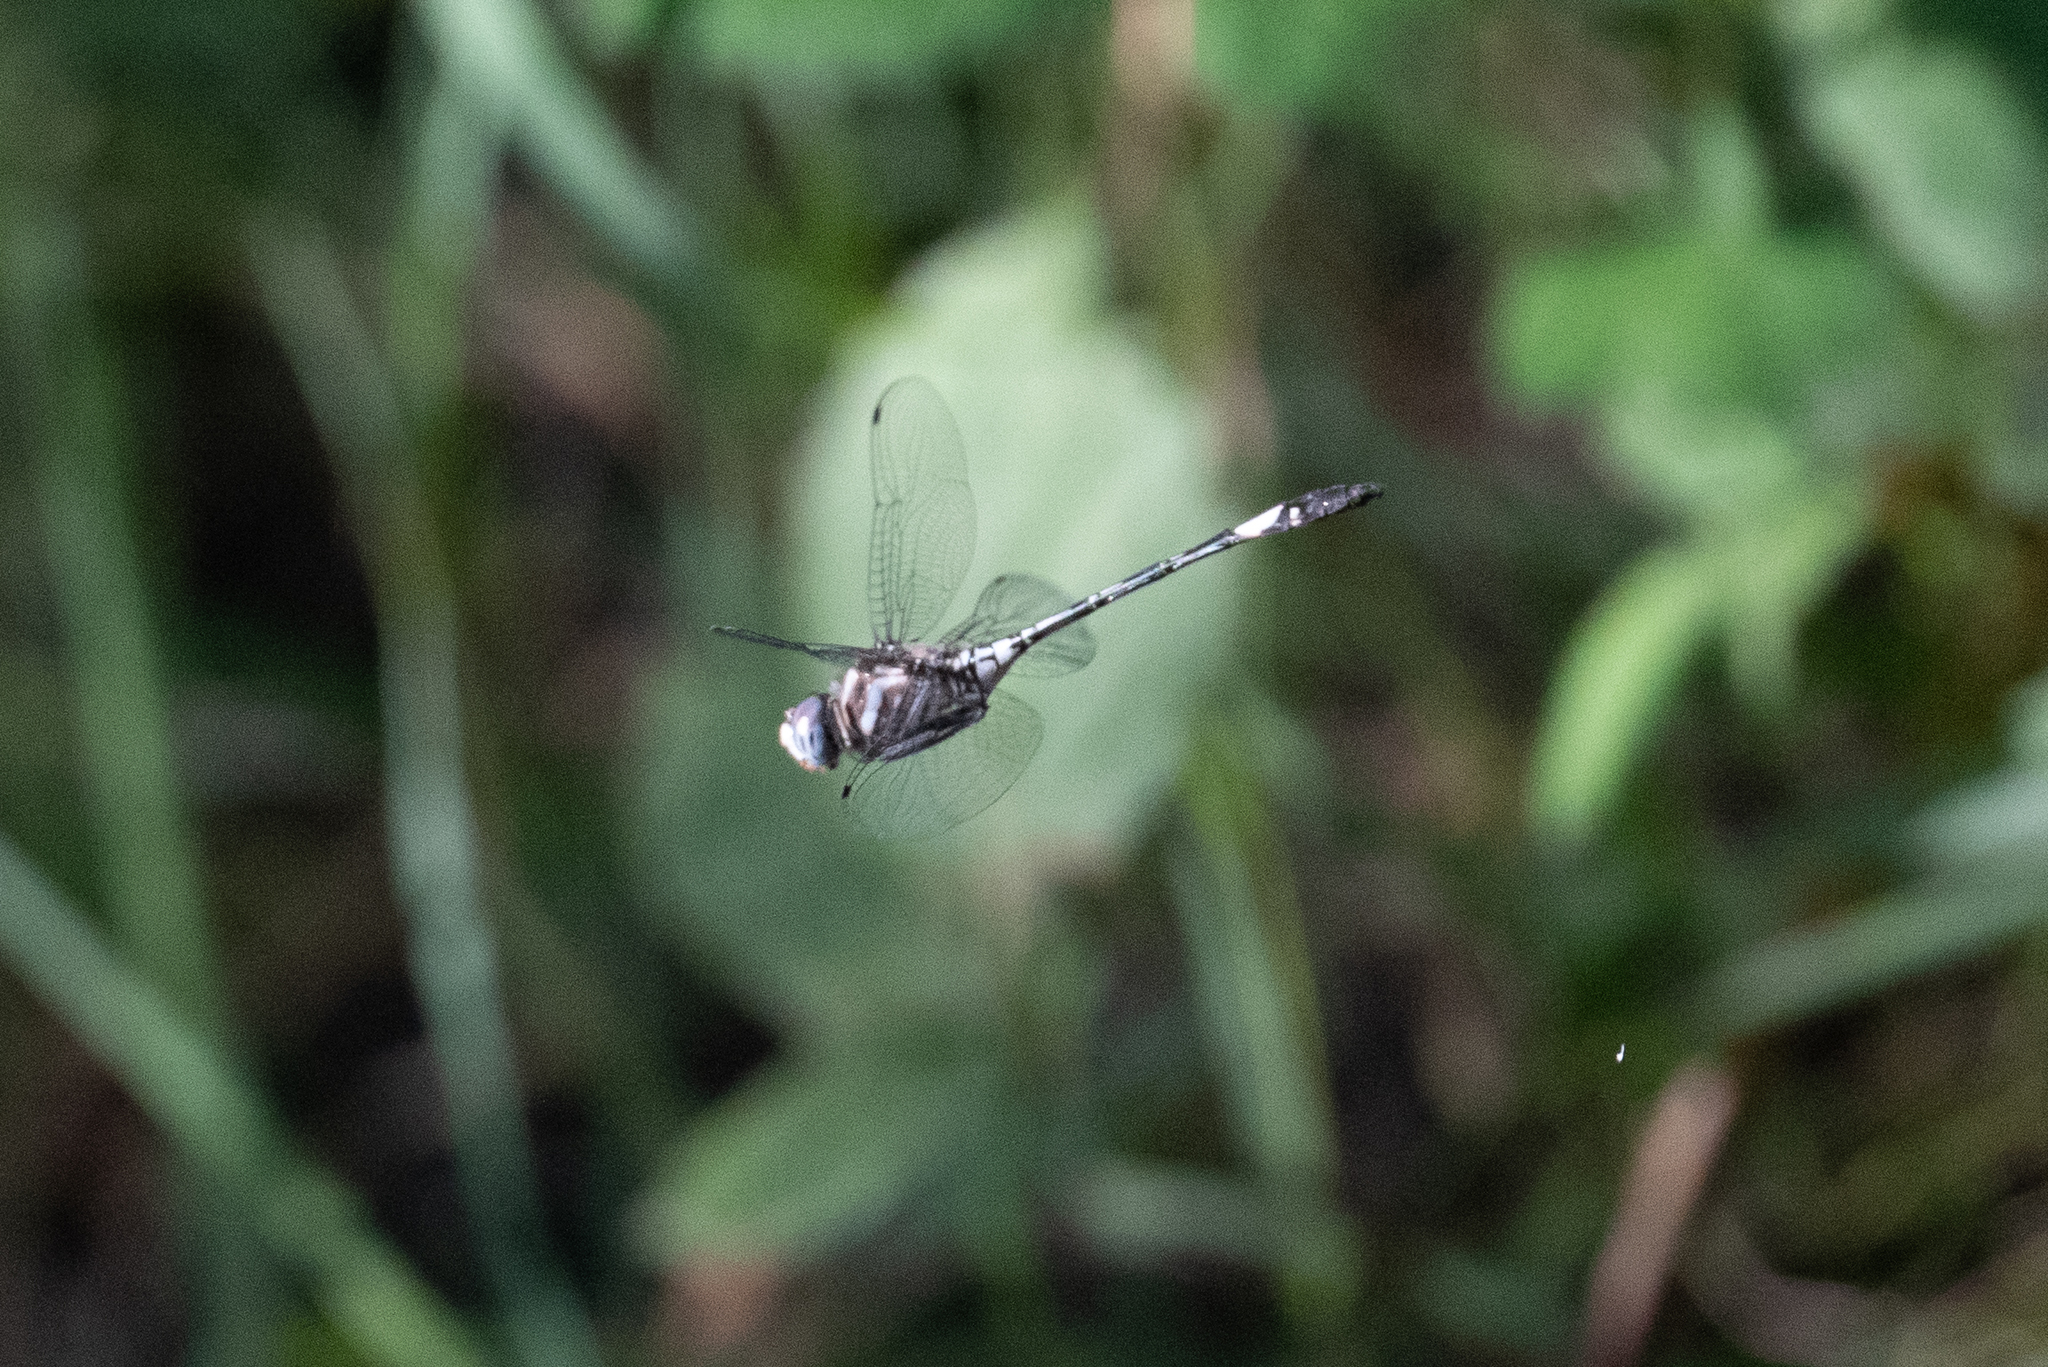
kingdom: Animalia
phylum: Arthropoda
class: Insecta
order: Odonata
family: Libellulidae
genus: Brechmorhoga
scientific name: Brechmorhoga mendax
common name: Pale-faced clubskimmer
